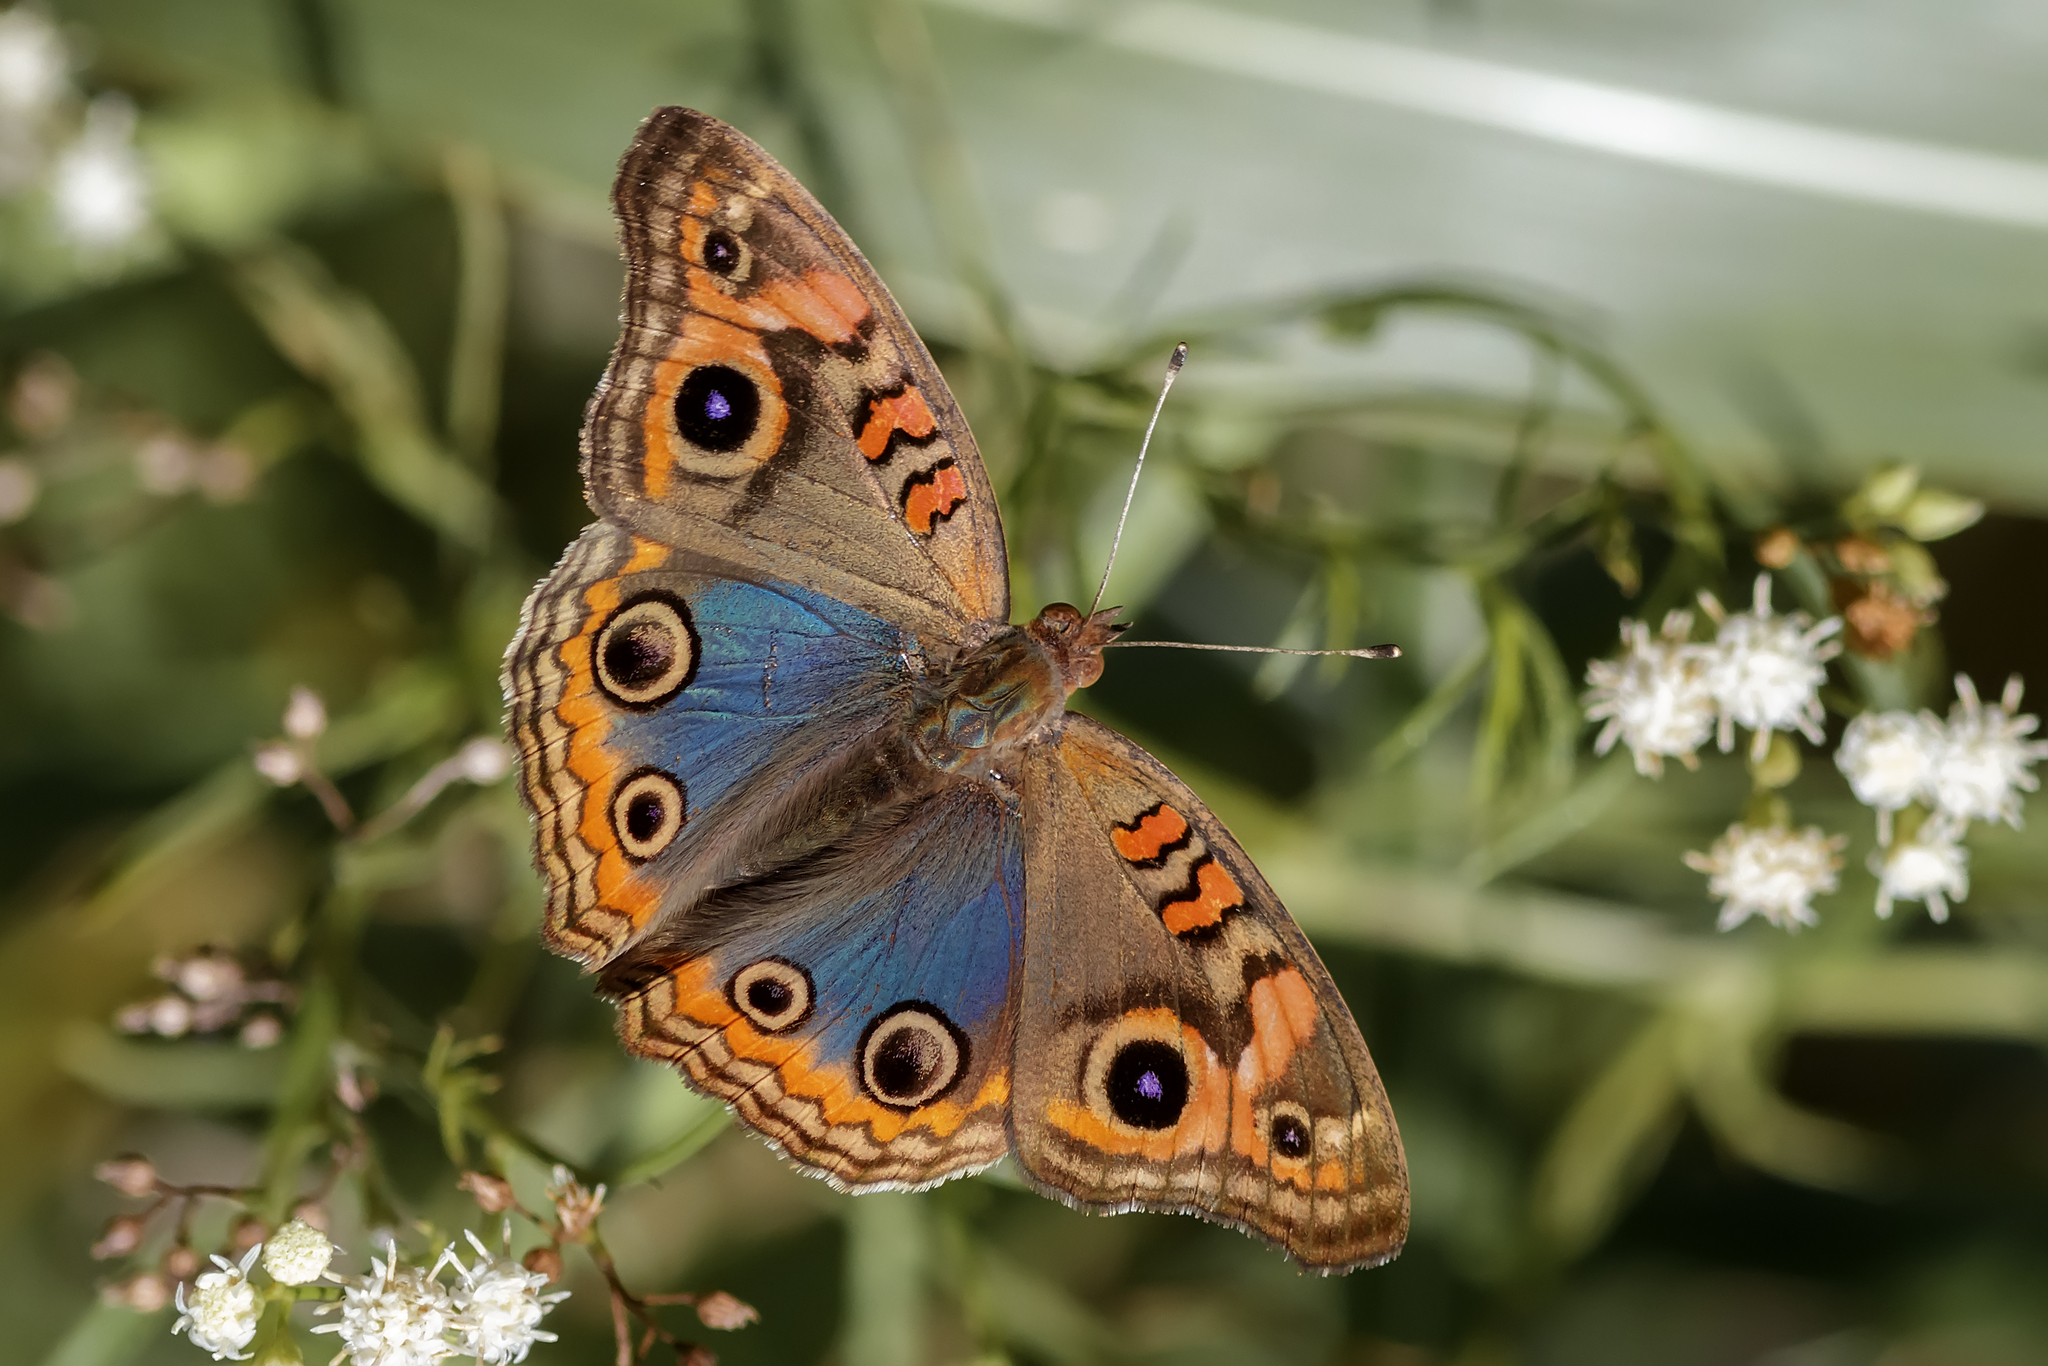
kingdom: Animalia
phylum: Arthropoda
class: Insecta
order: Lepidoptera
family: Nymphalidae
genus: Junonia
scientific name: Junonia lavinia
